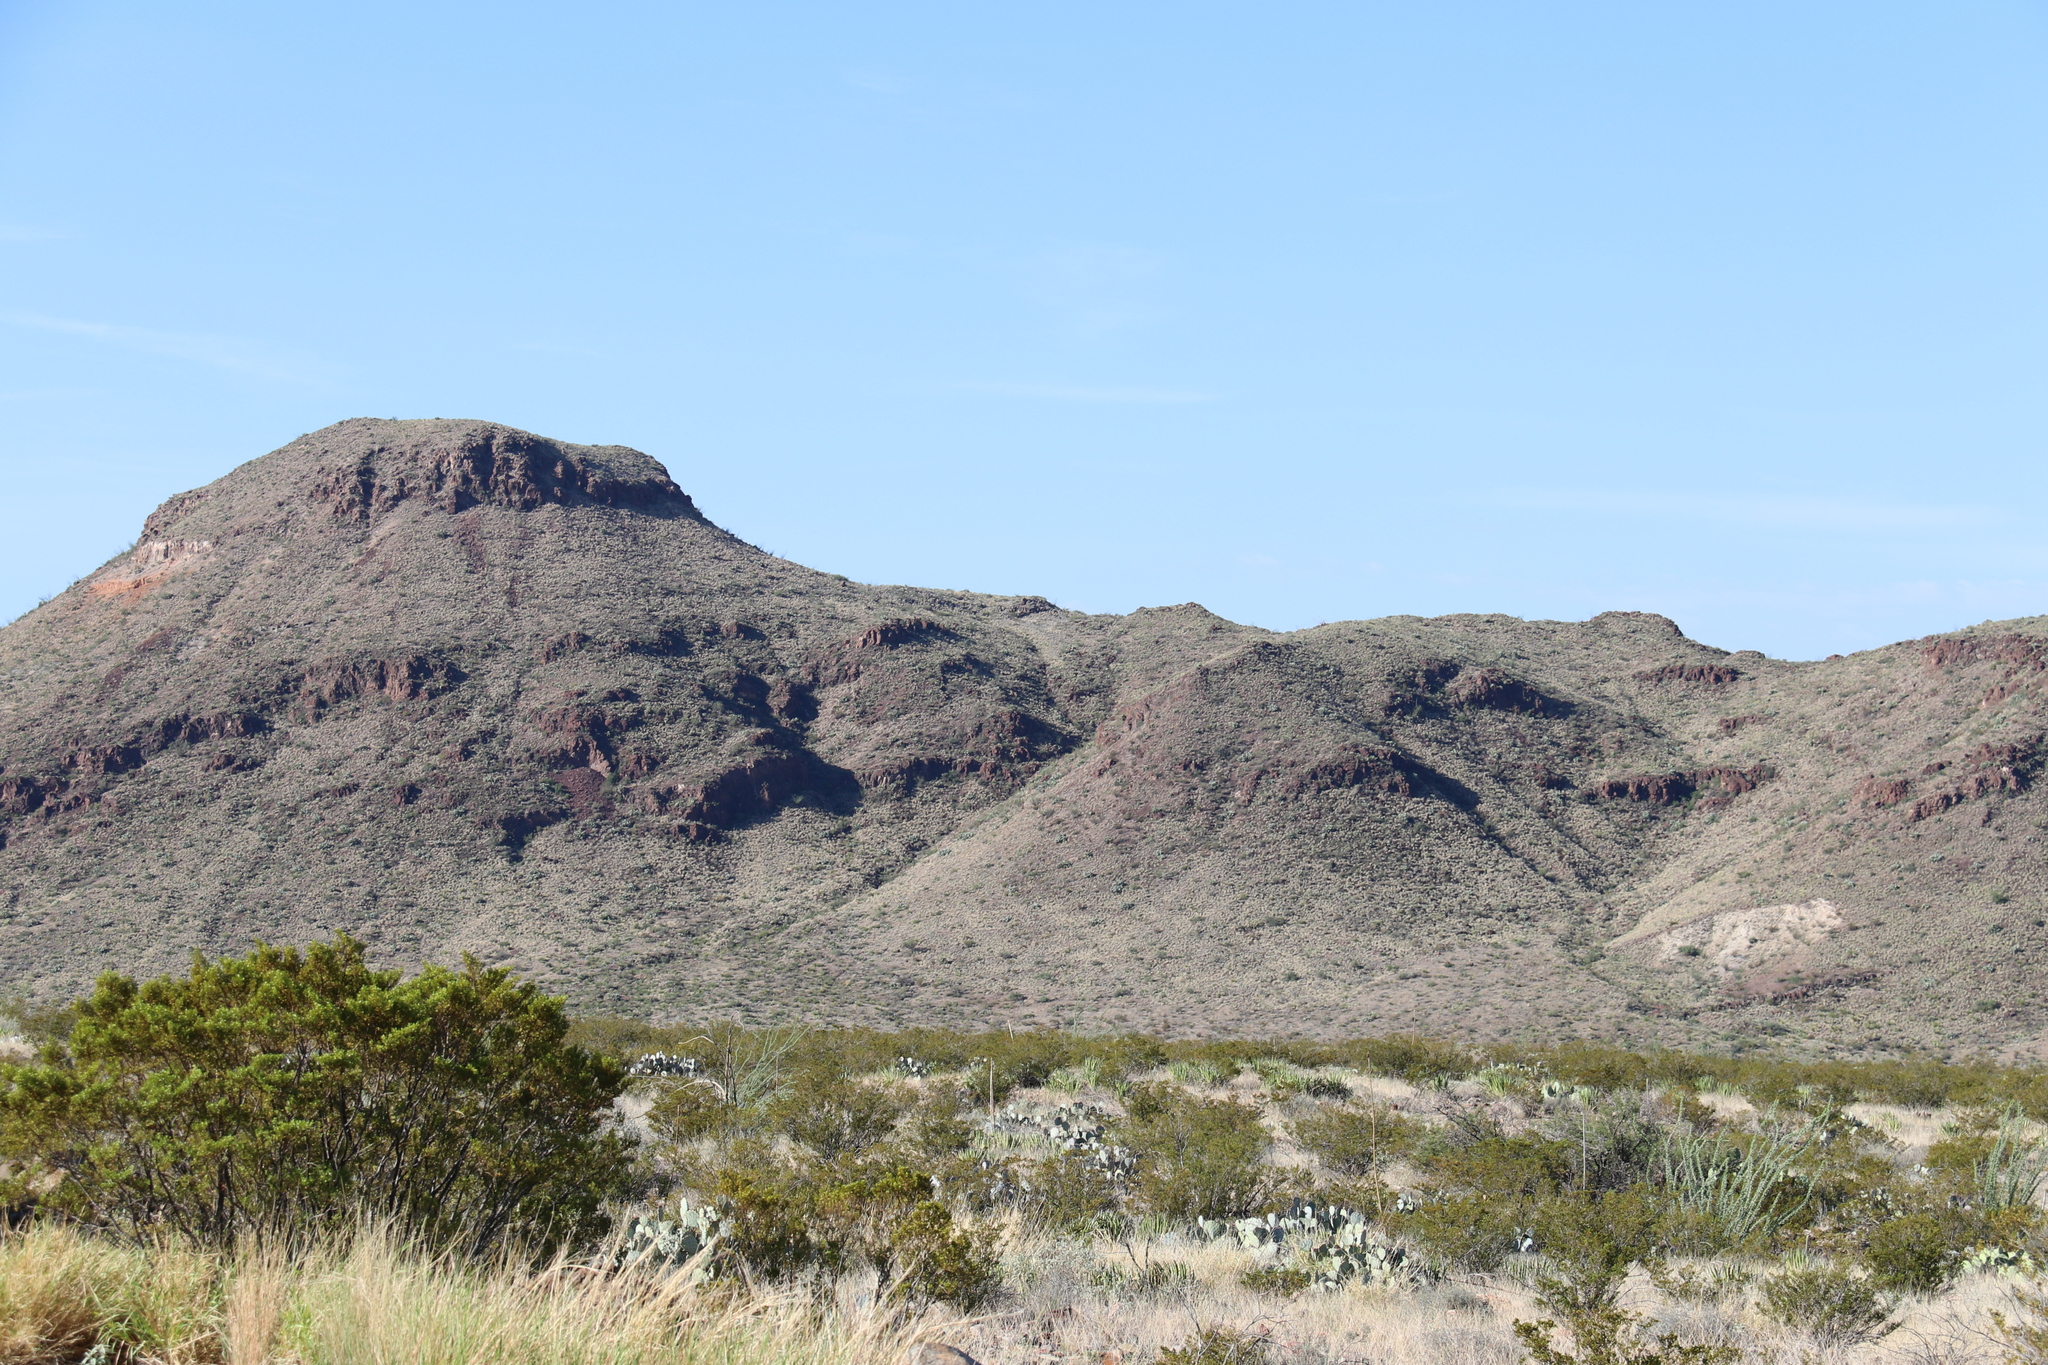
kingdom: Plantae
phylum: Tracheophyta
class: Magnoliopsida
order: Ericales
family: Fouquieriaceae
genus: Fouquieria
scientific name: Fouquieria splendens
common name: Vine-cactus
